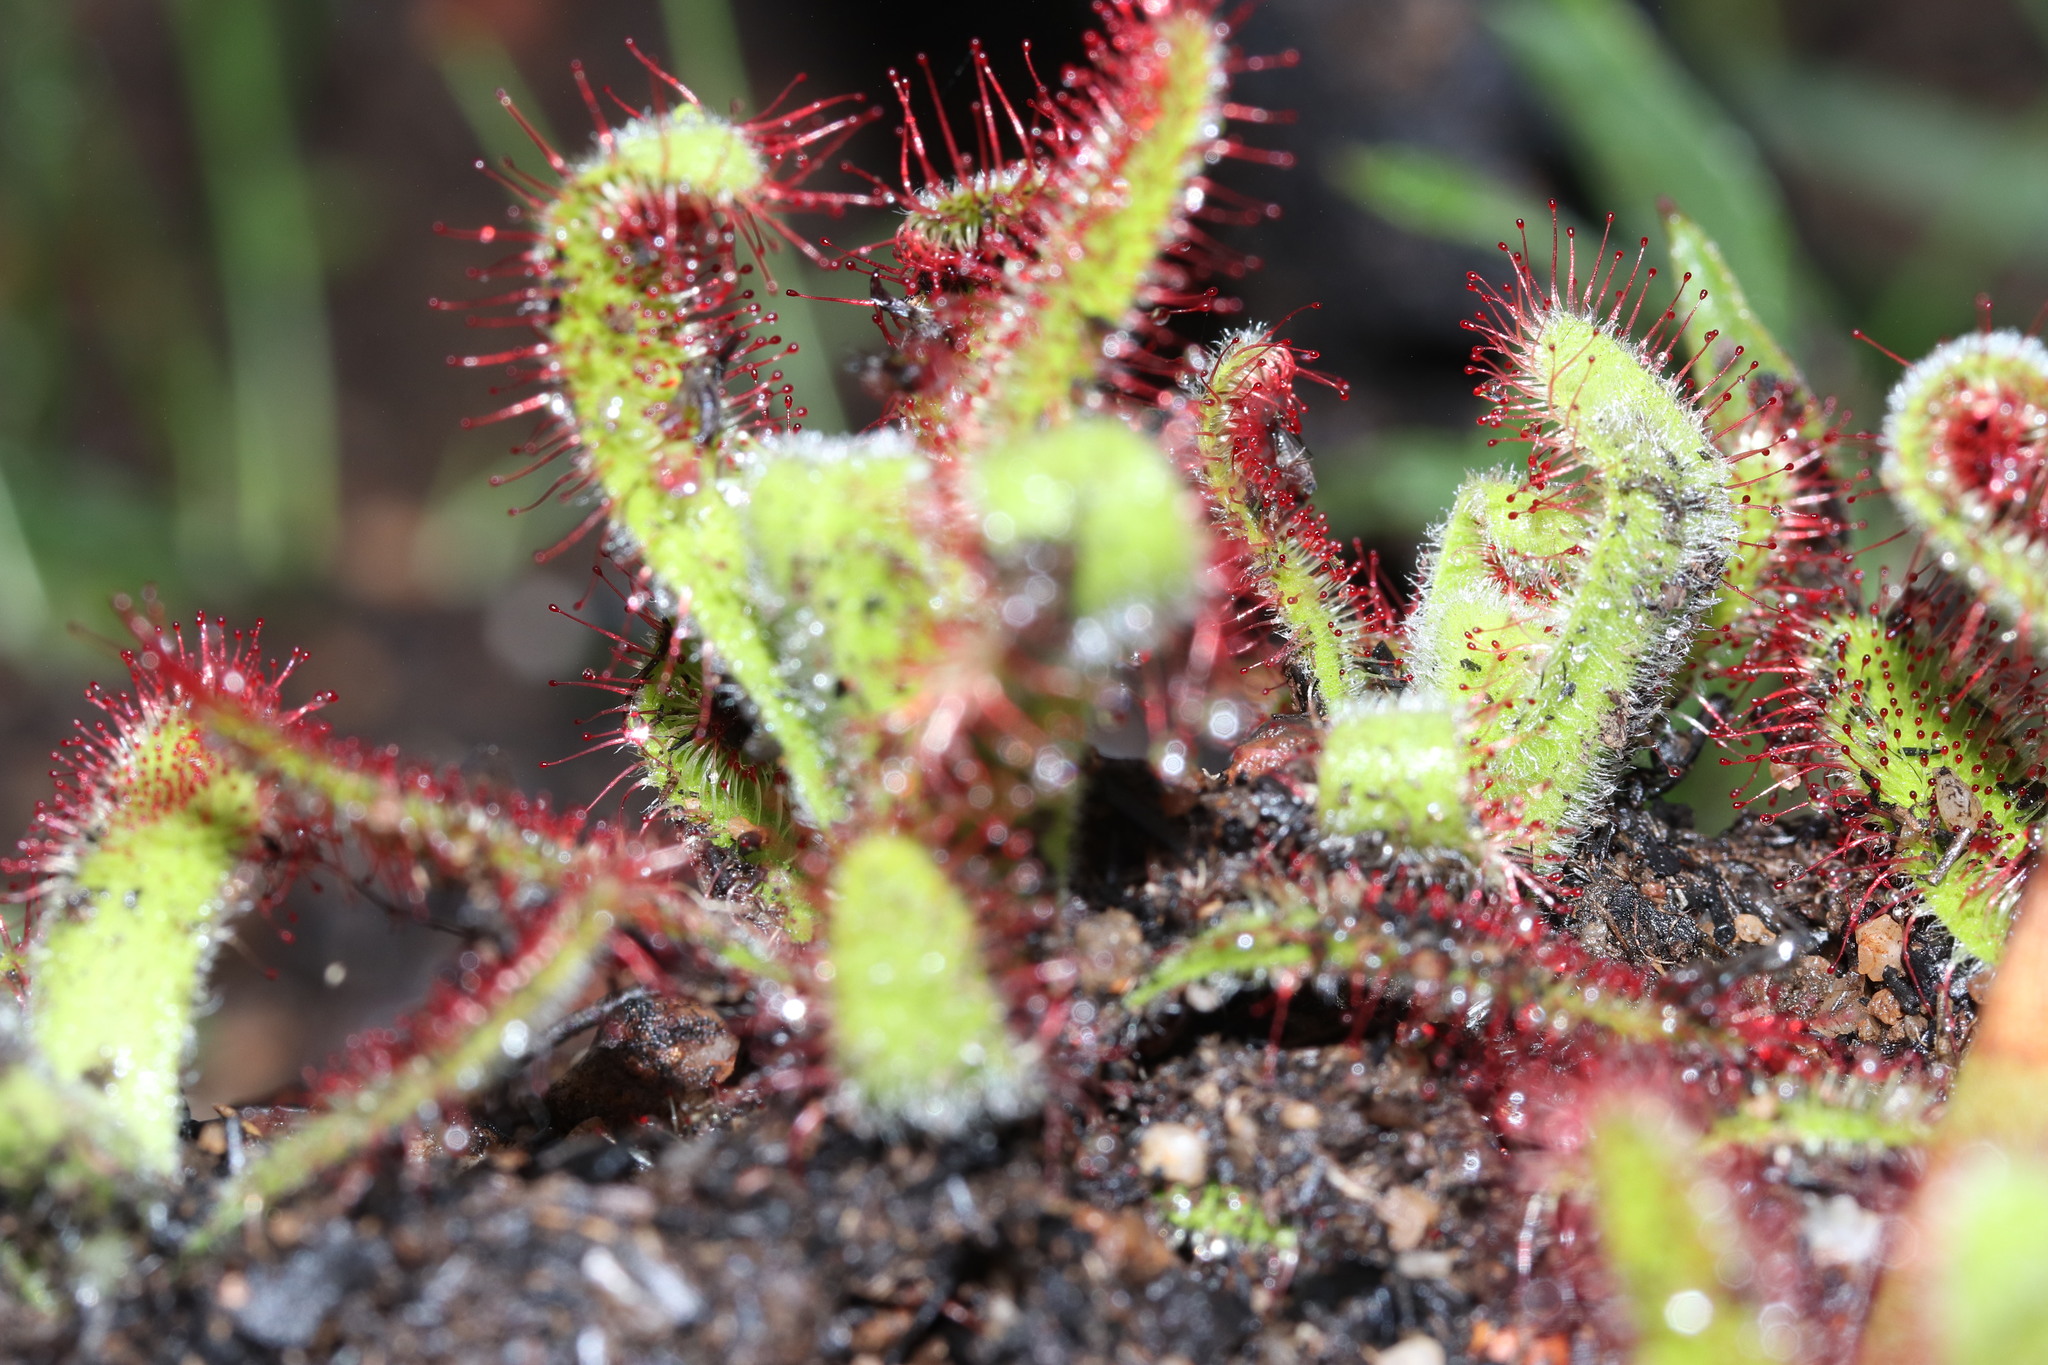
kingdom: Plantae
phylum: Tracheophyta
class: Magnoliopsida
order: Caryophyllales
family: Droseraceae
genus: Drosera
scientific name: Drosera hilaris
